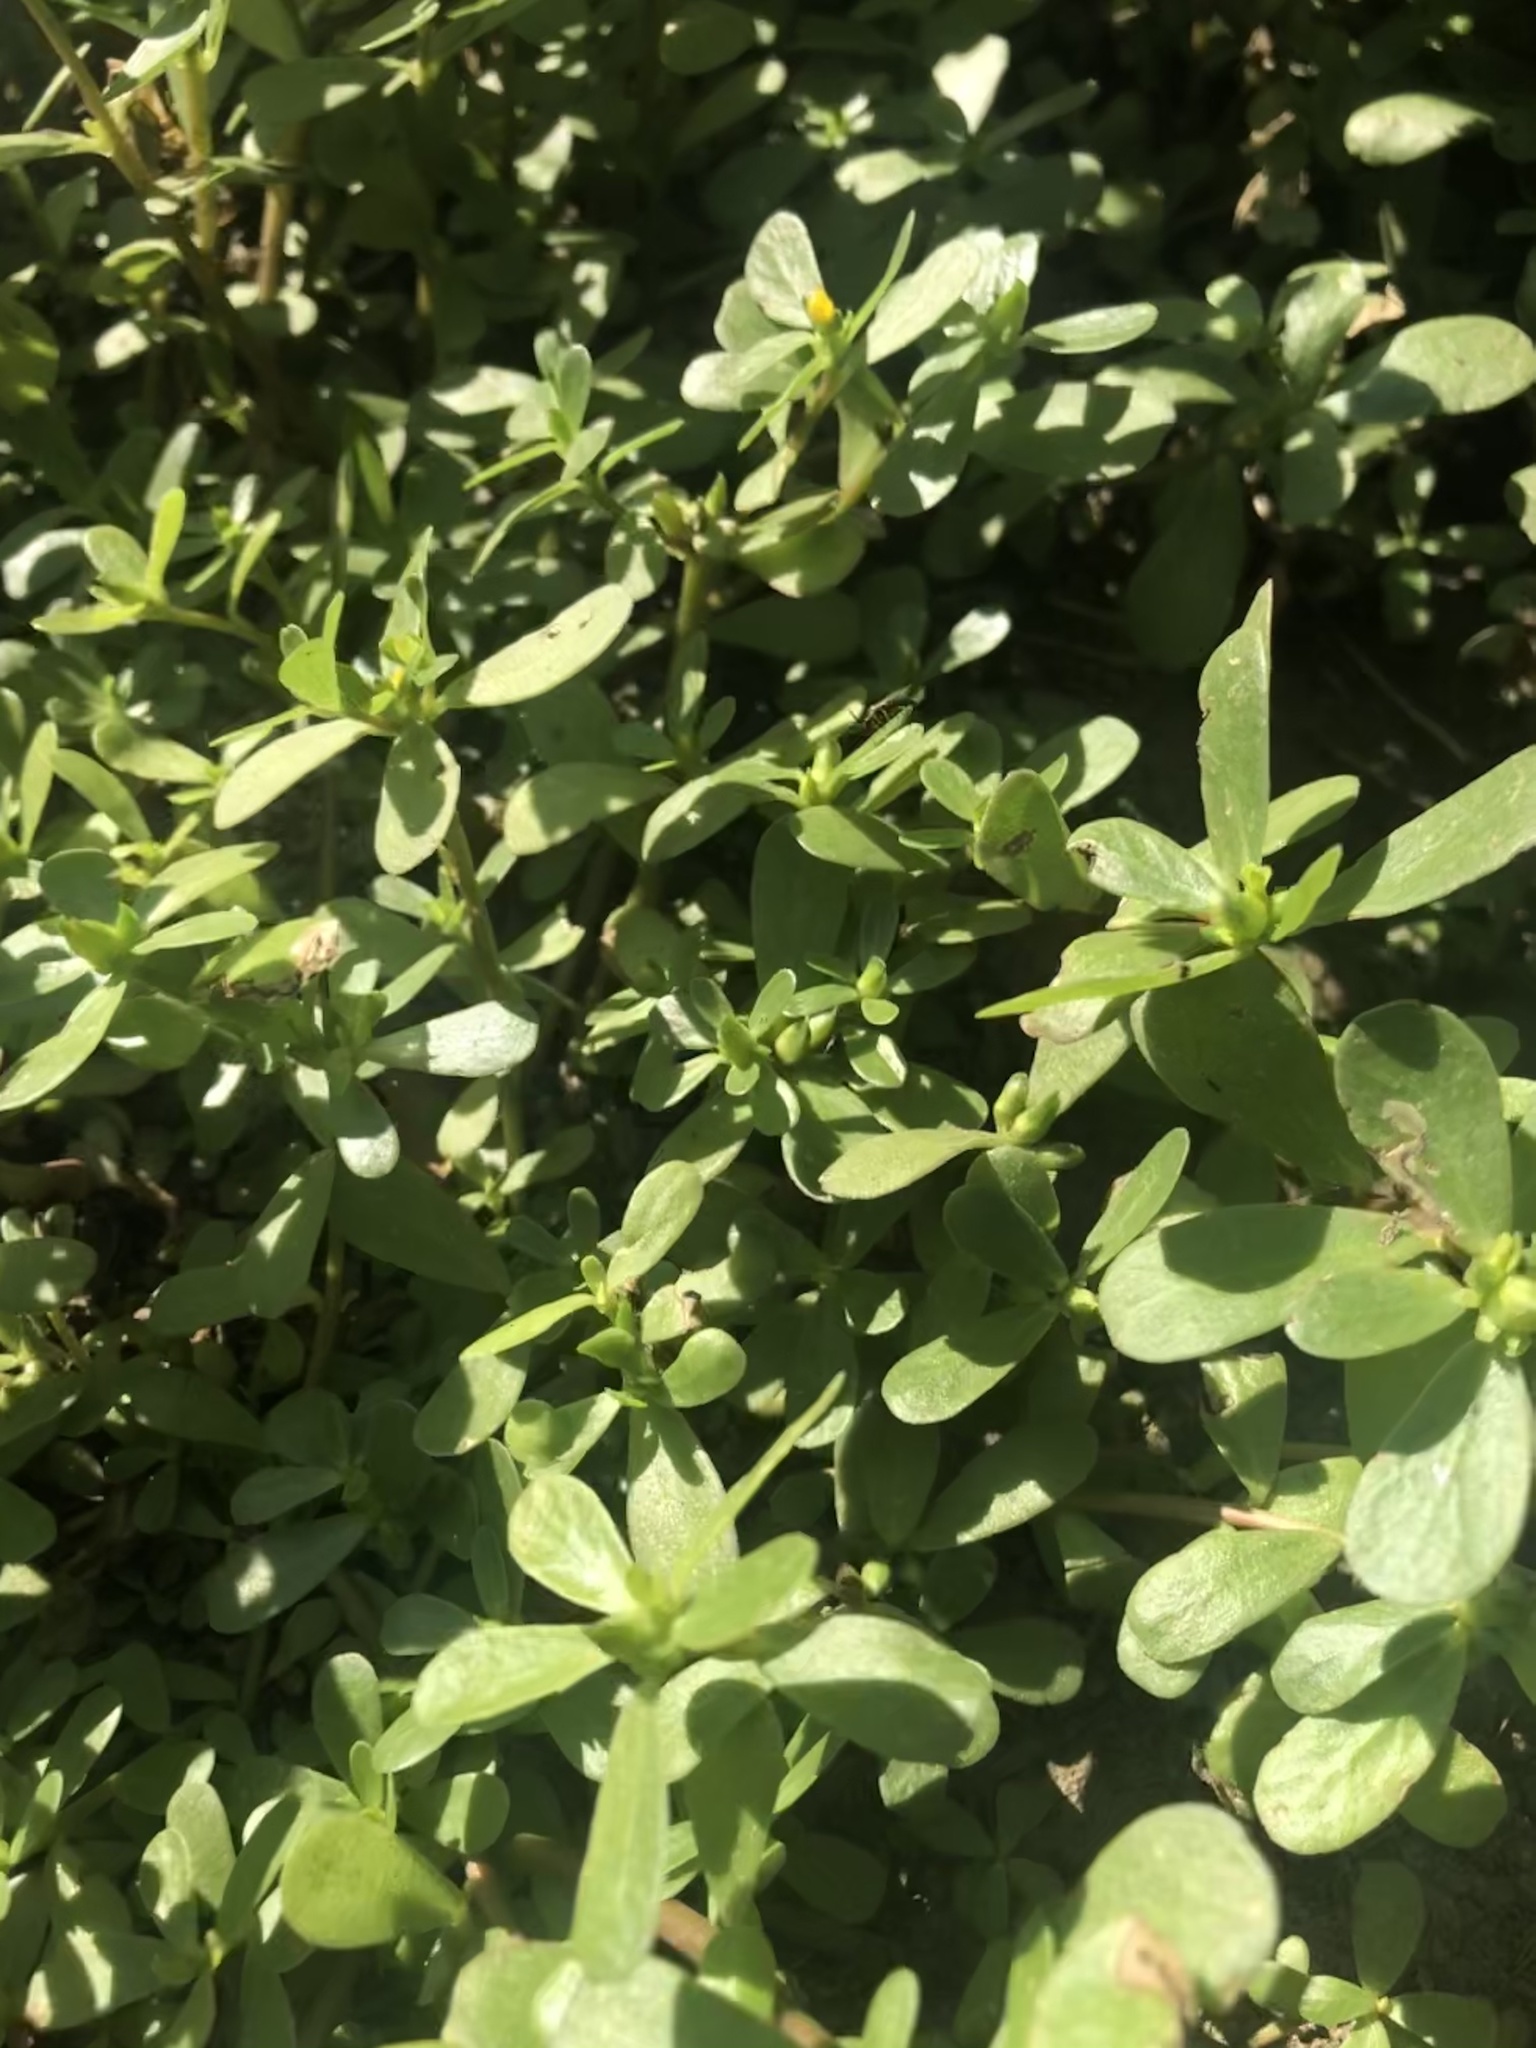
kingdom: Plantae
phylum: Tracheophyta
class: Magnoliopsida
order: Caryophyllales
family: Portulacaceae
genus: Portulaca
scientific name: Portulaca oleracea
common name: Common purslane
